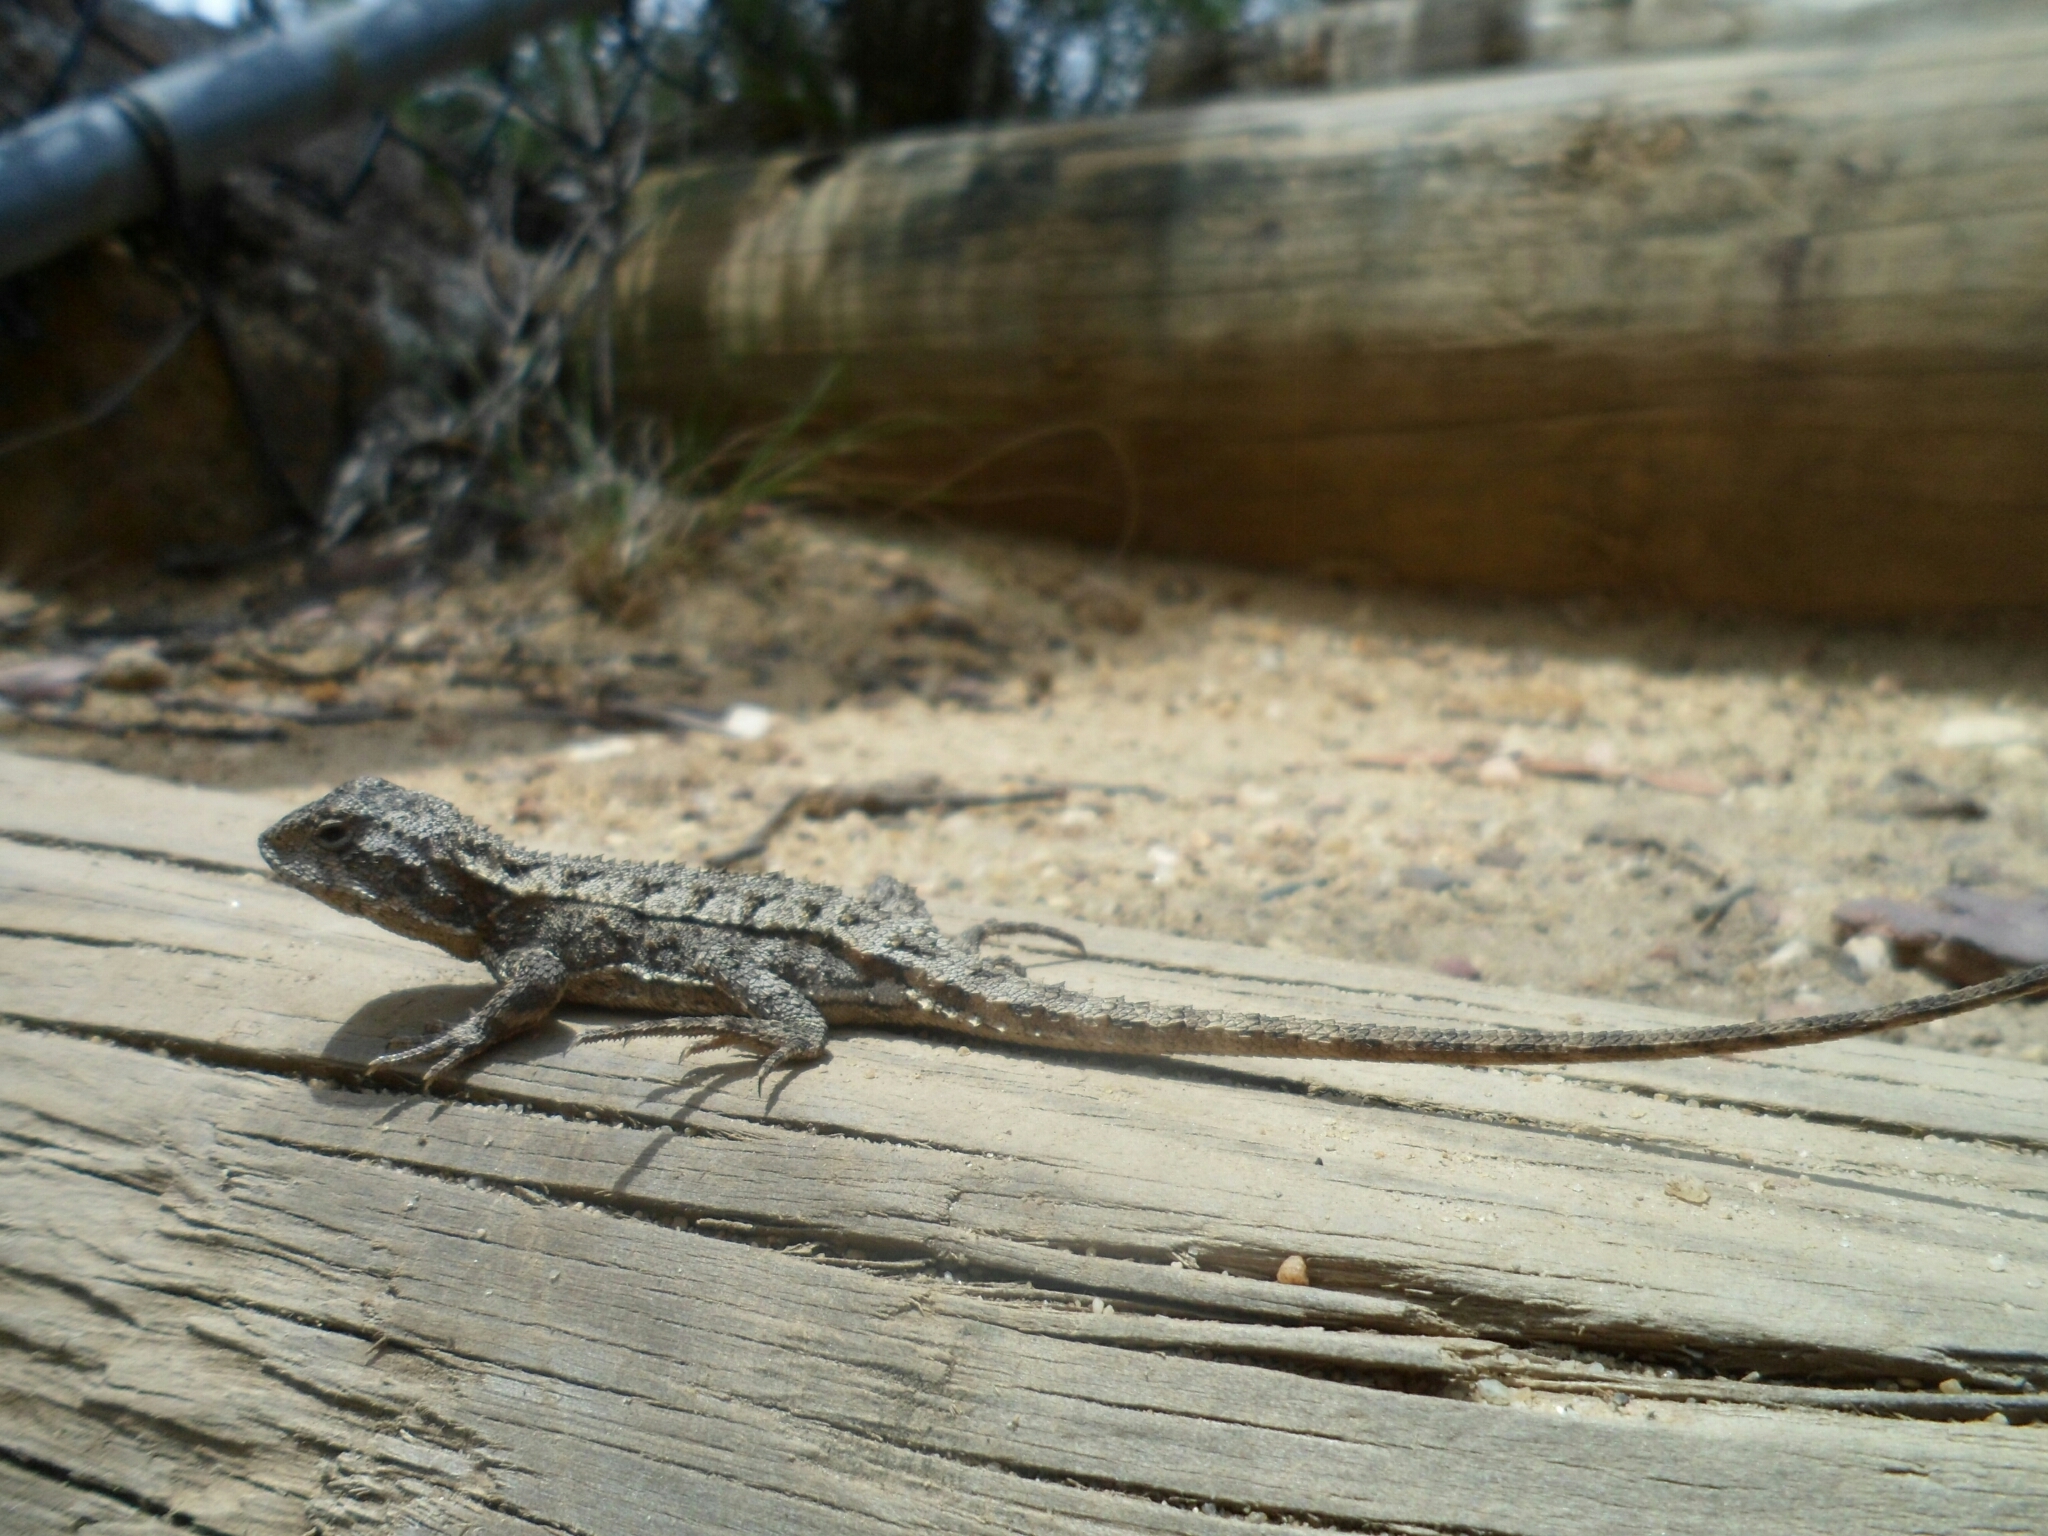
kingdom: Animalia
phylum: Chordata
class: Squamata
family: Agamidae
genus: Rankinia
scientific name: Rankinia diemensis
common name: Mountain dragon
